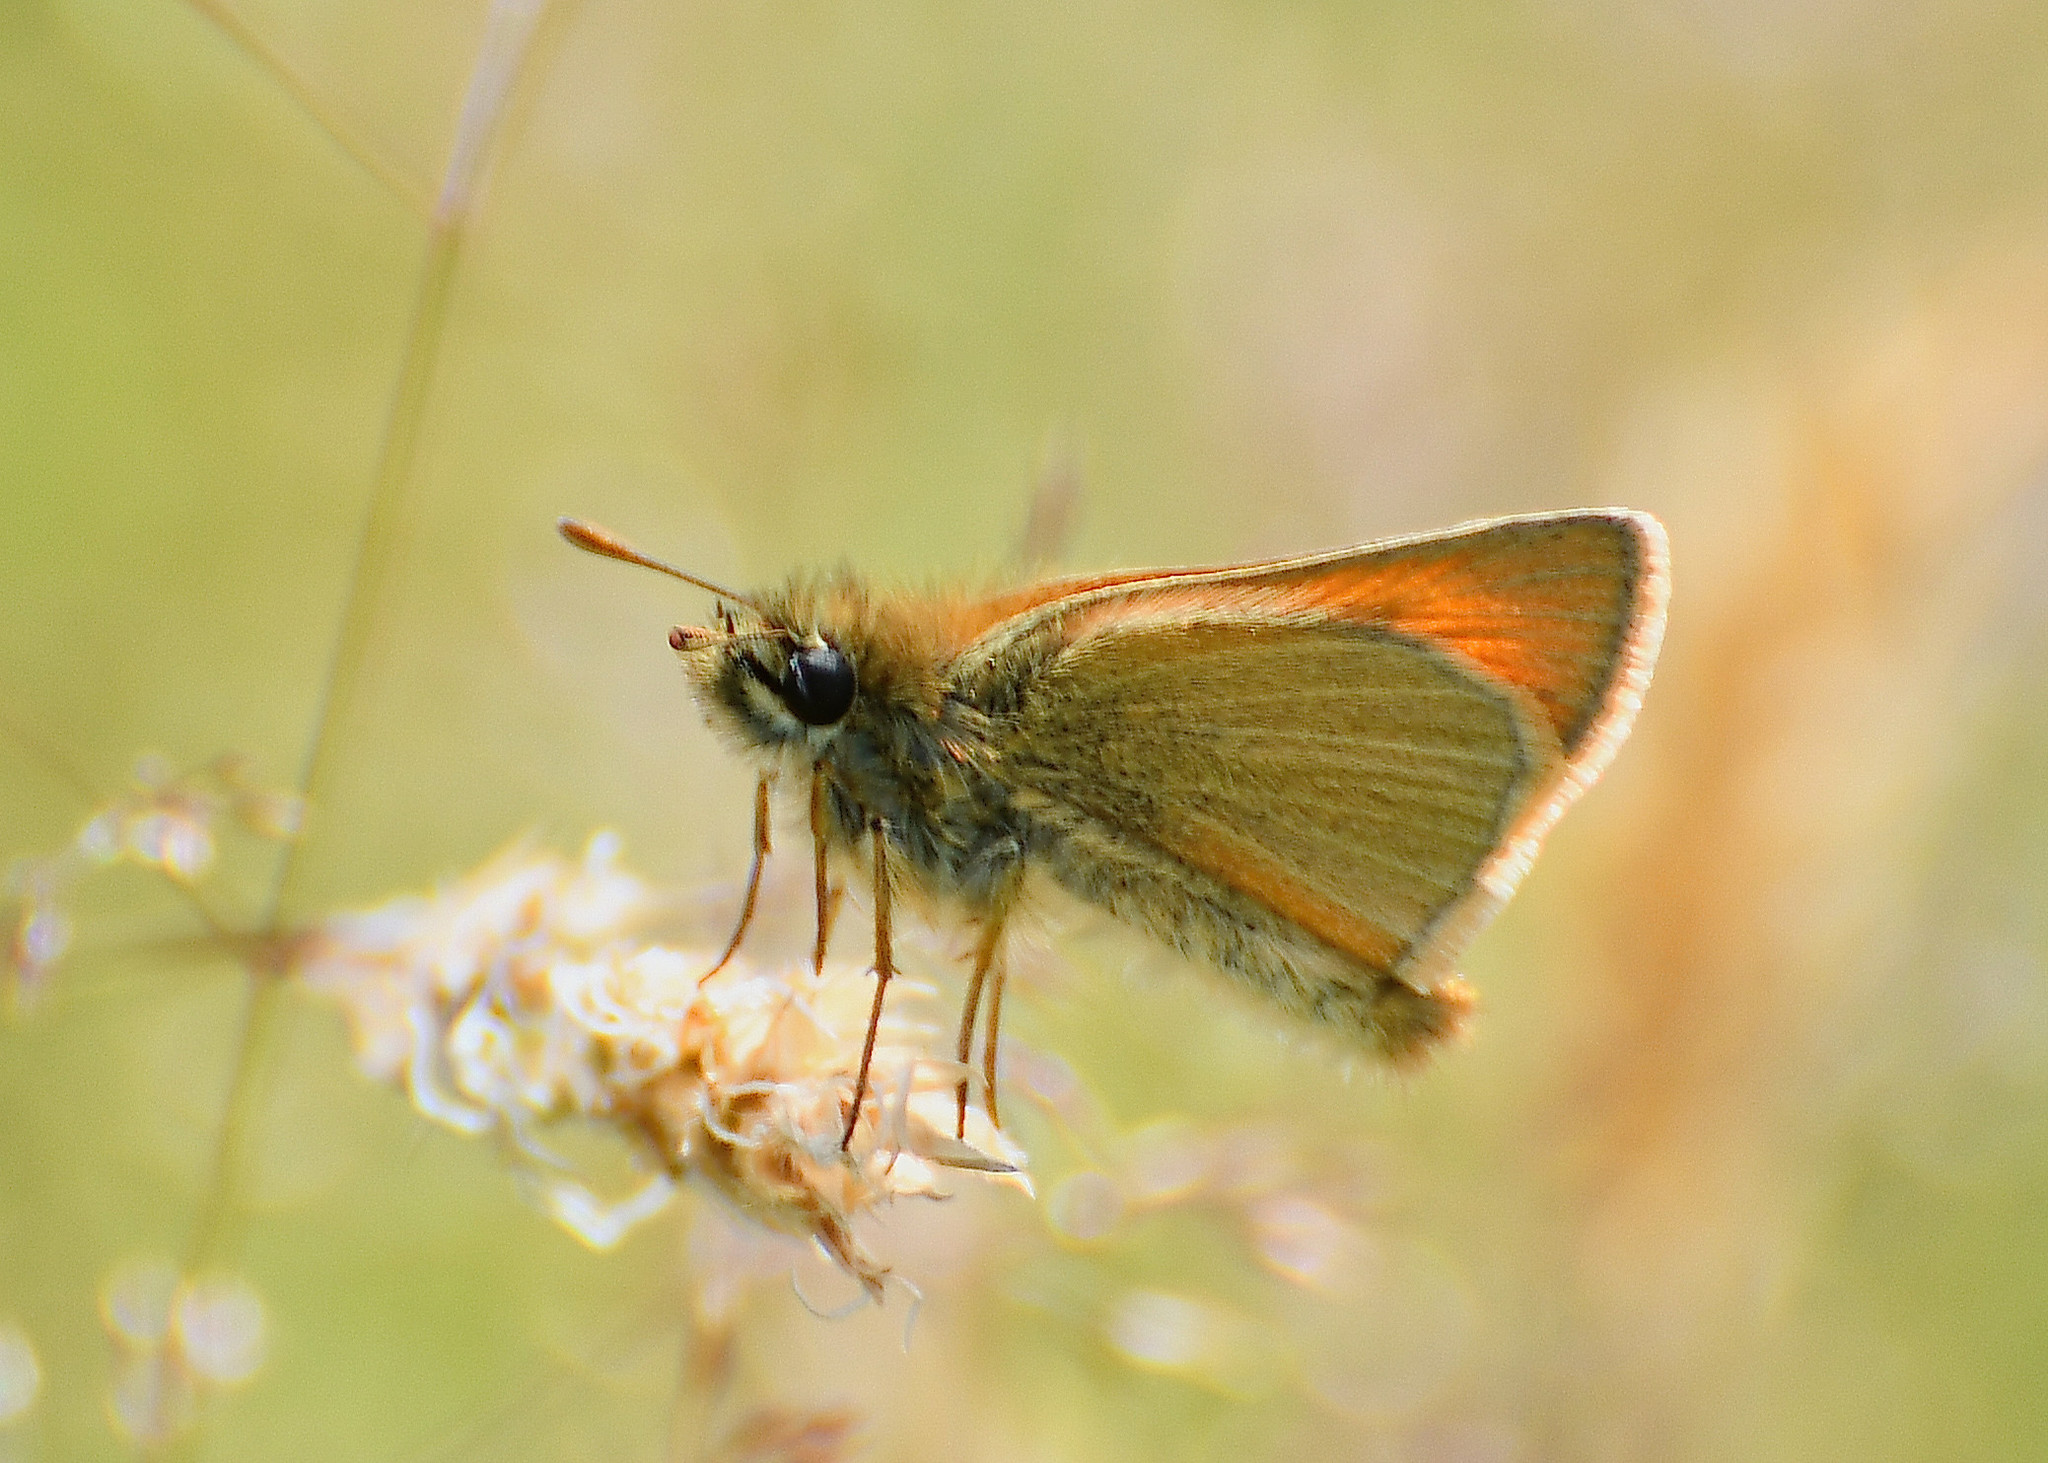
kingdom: Animalia
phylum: Arthropoda
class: Insecta
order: Lepidoptera
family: Hesperiidae
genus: Thymelicus
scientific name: Thymelicus sylvestris
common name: Small skipper
